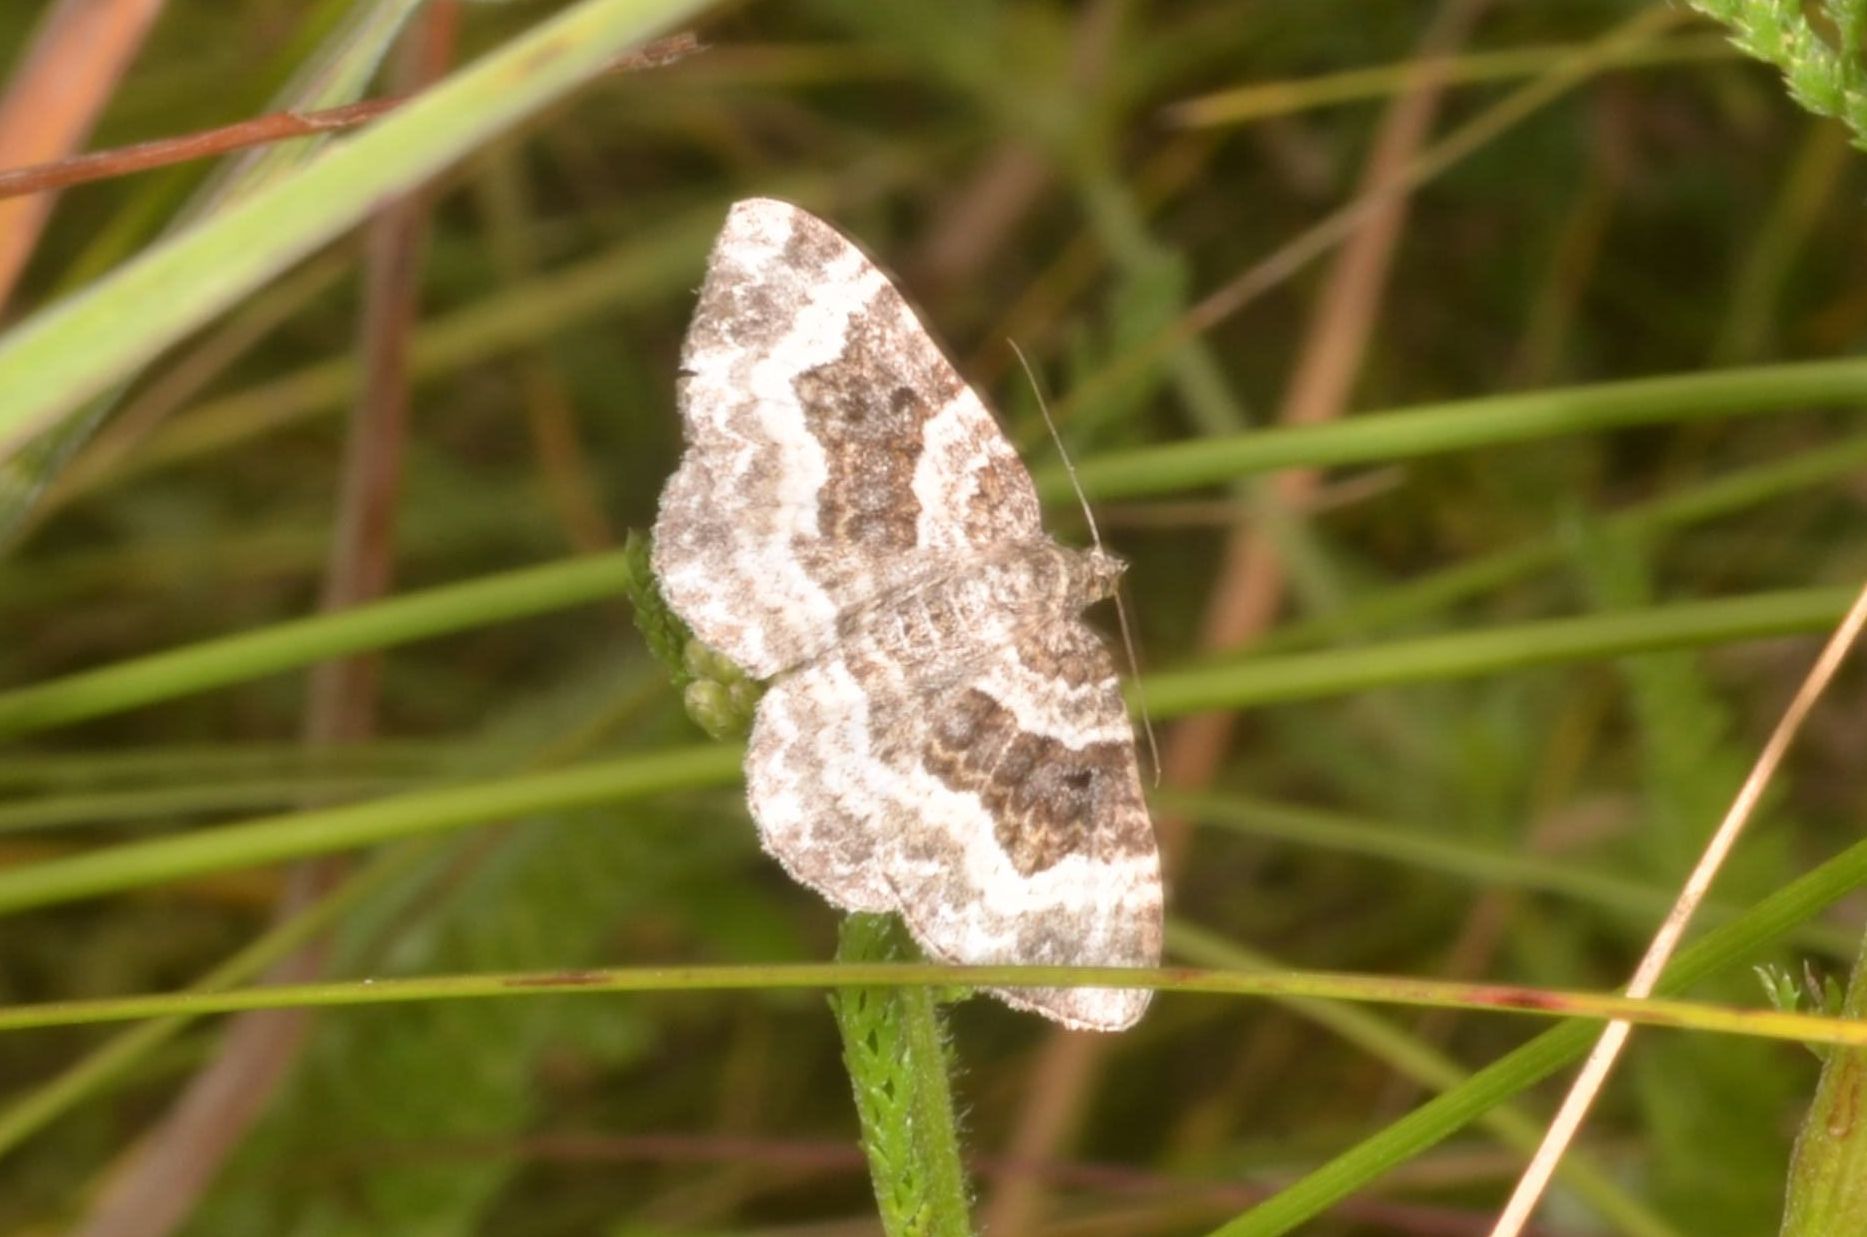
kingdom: Animalia
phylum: Arthropoda
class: Insecta
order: Lepidoptera
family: Geometridae
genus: Epirrhoe
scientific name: Epirrhoe alternata
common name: Common carpet
